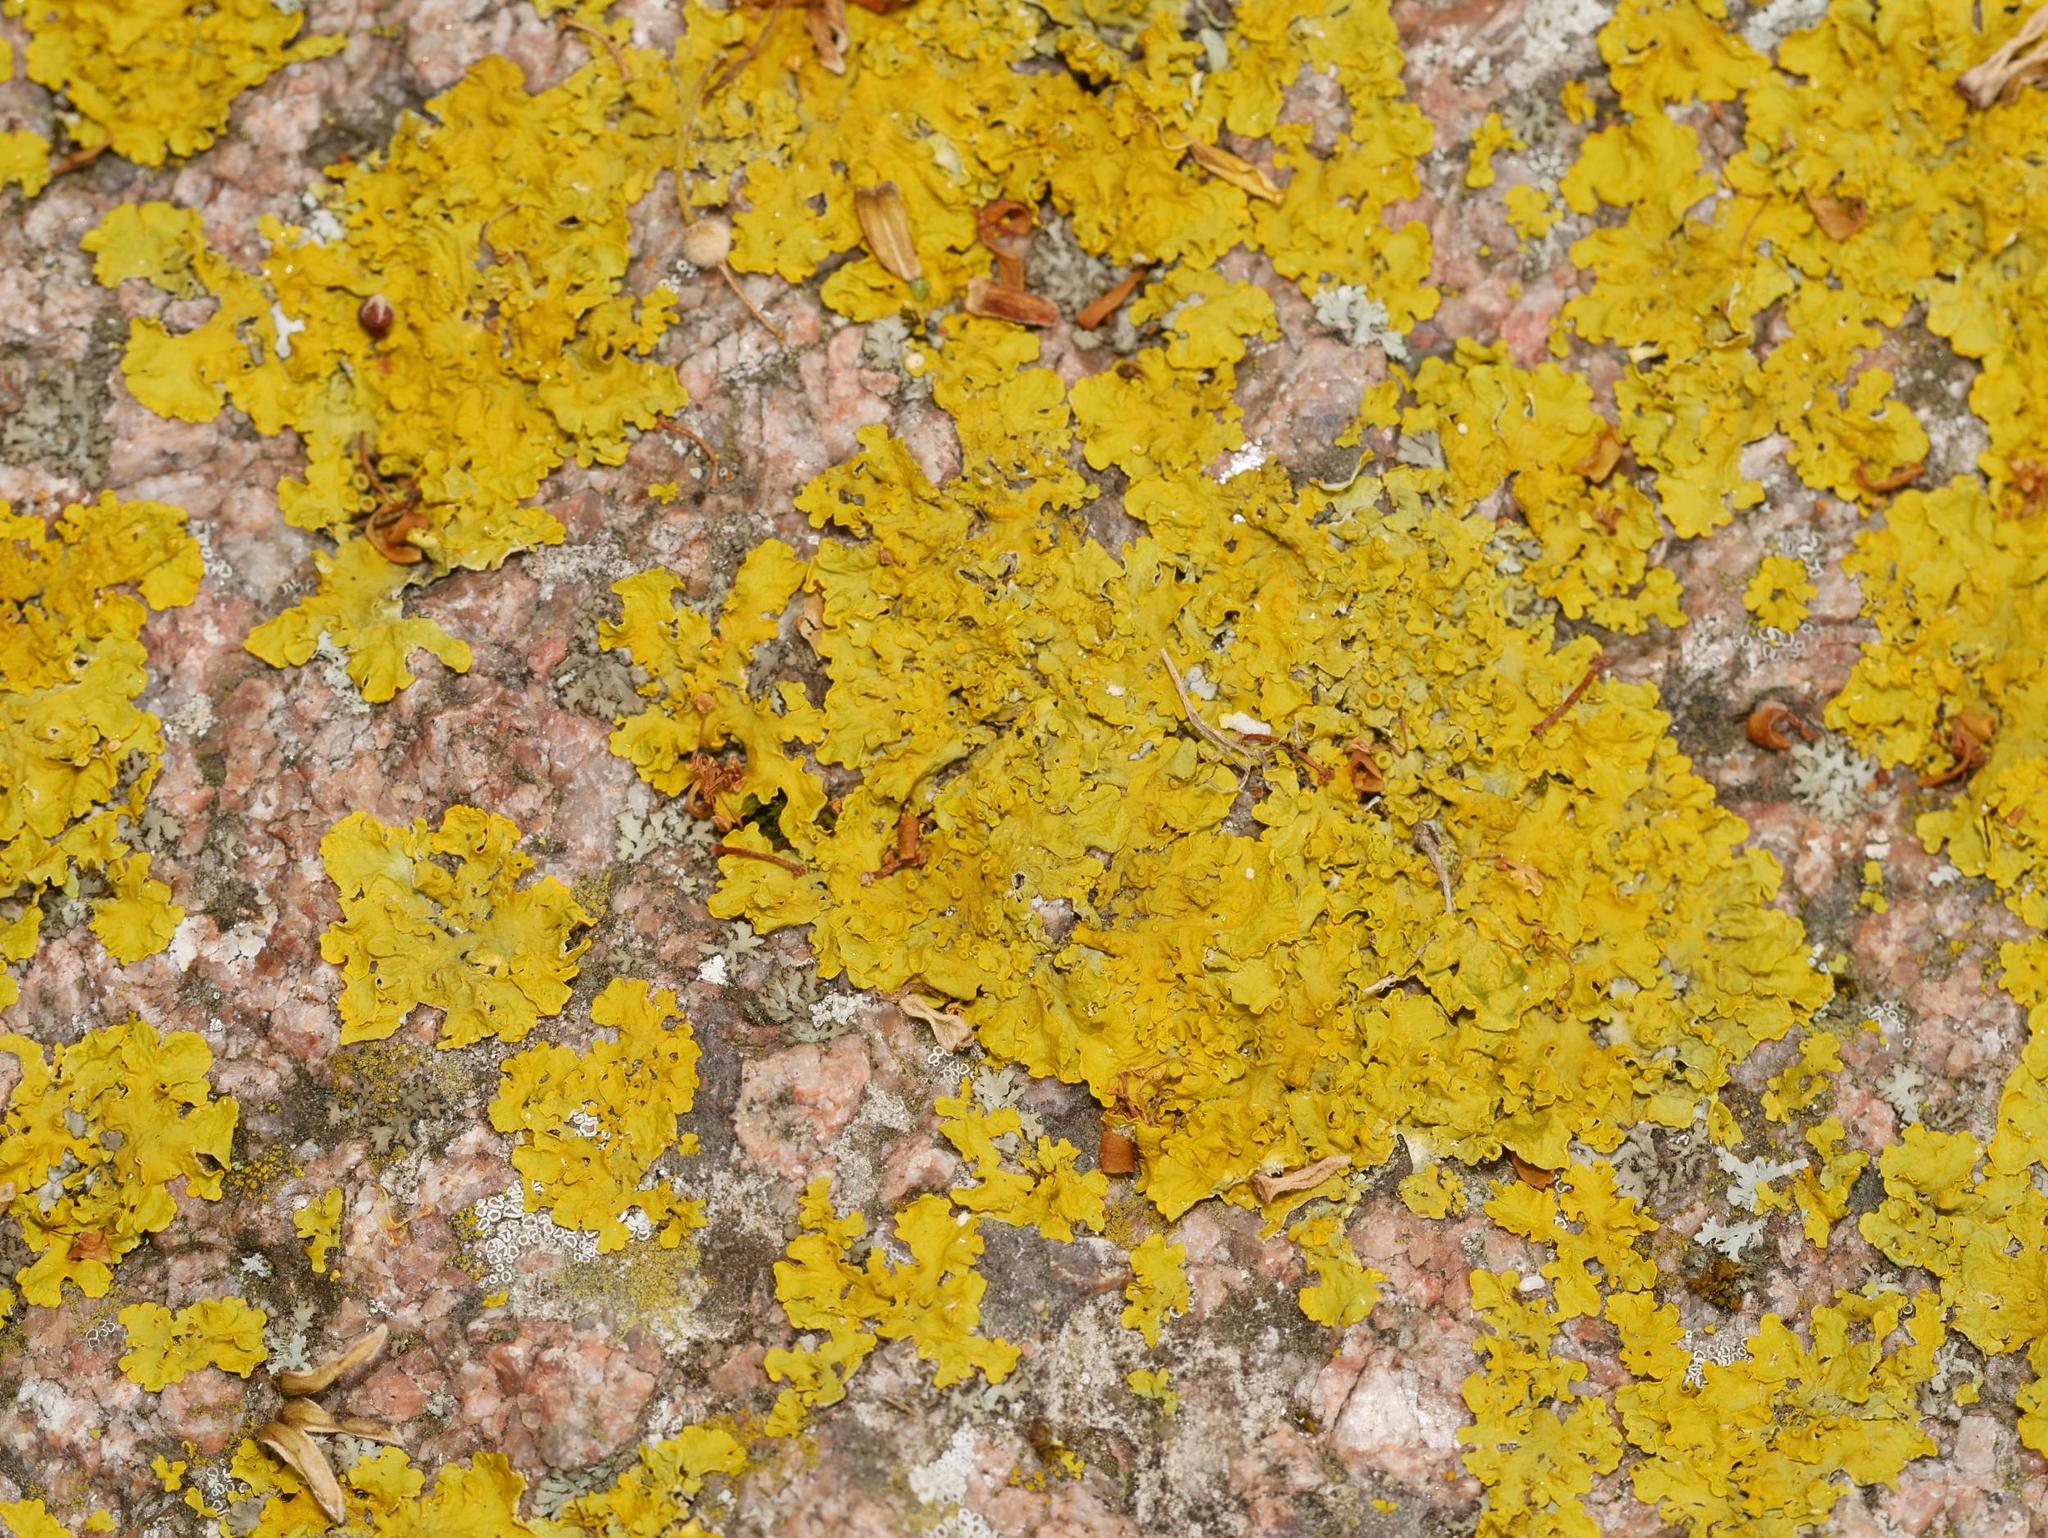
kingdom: Fungi
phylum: Ascomycota
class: Lecanoromycetes
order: Teloschistales
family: Teloschistaceae
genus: Xanthoria
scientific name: Xanthoria parietina
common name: Common orange lichen
